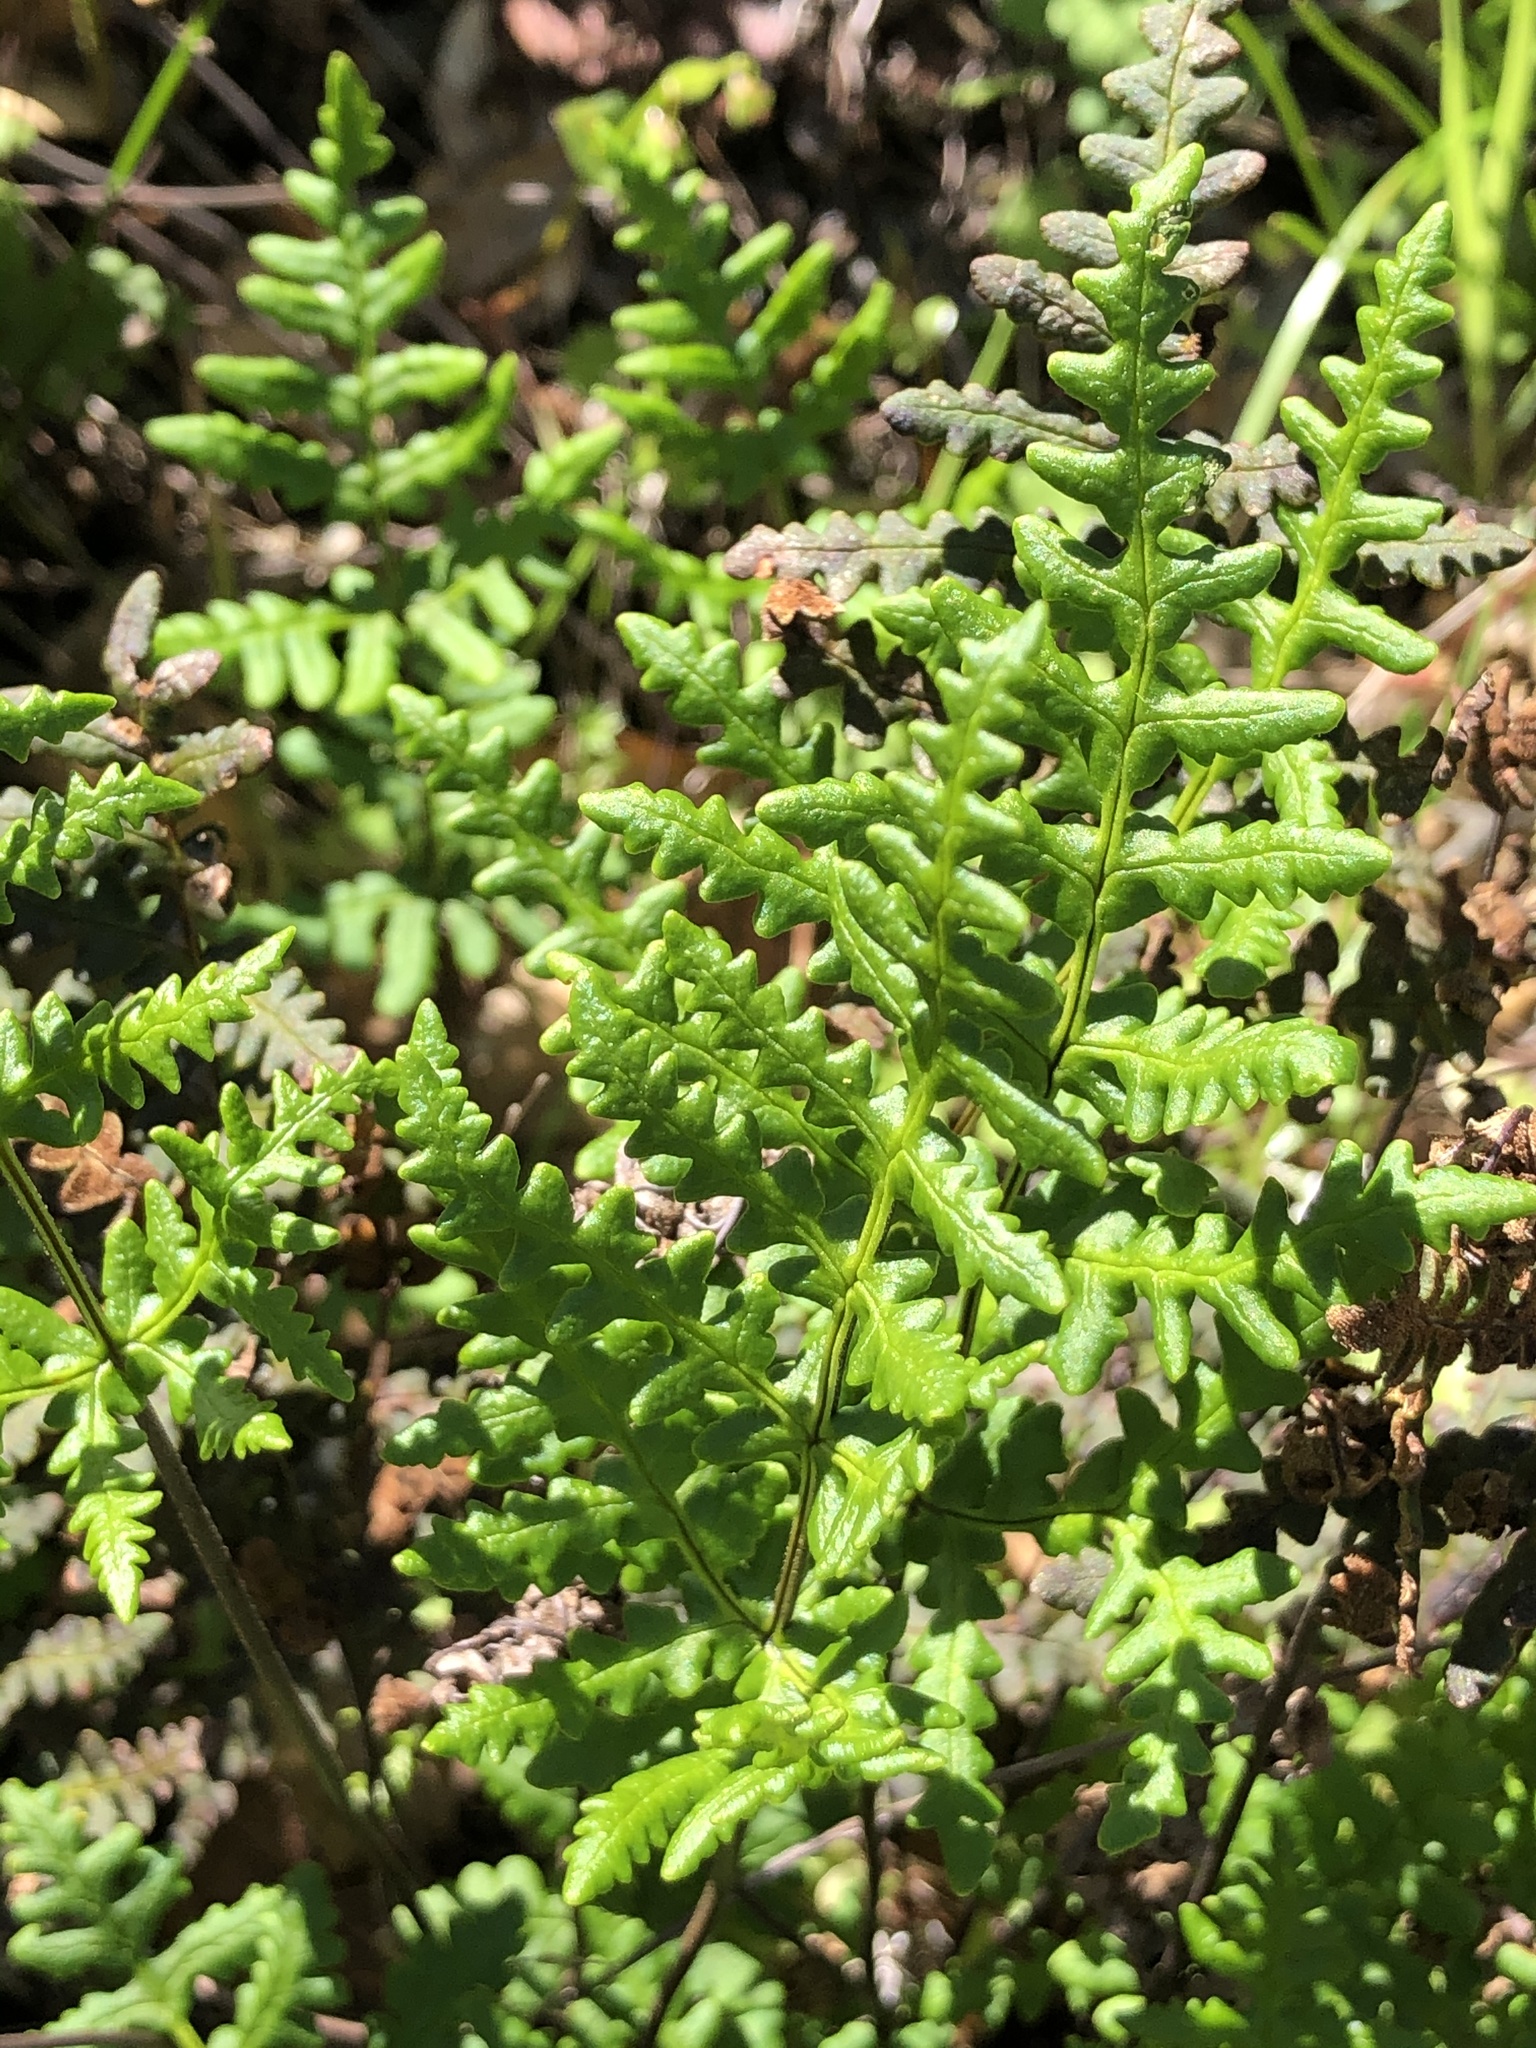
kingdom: Plantae
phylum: Tracheophyta
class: Polypodiopsida
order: Polypodiales
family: Pteridaceae
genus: Pentagramma
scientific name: Pentagramma triangularis
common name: Gold fern
